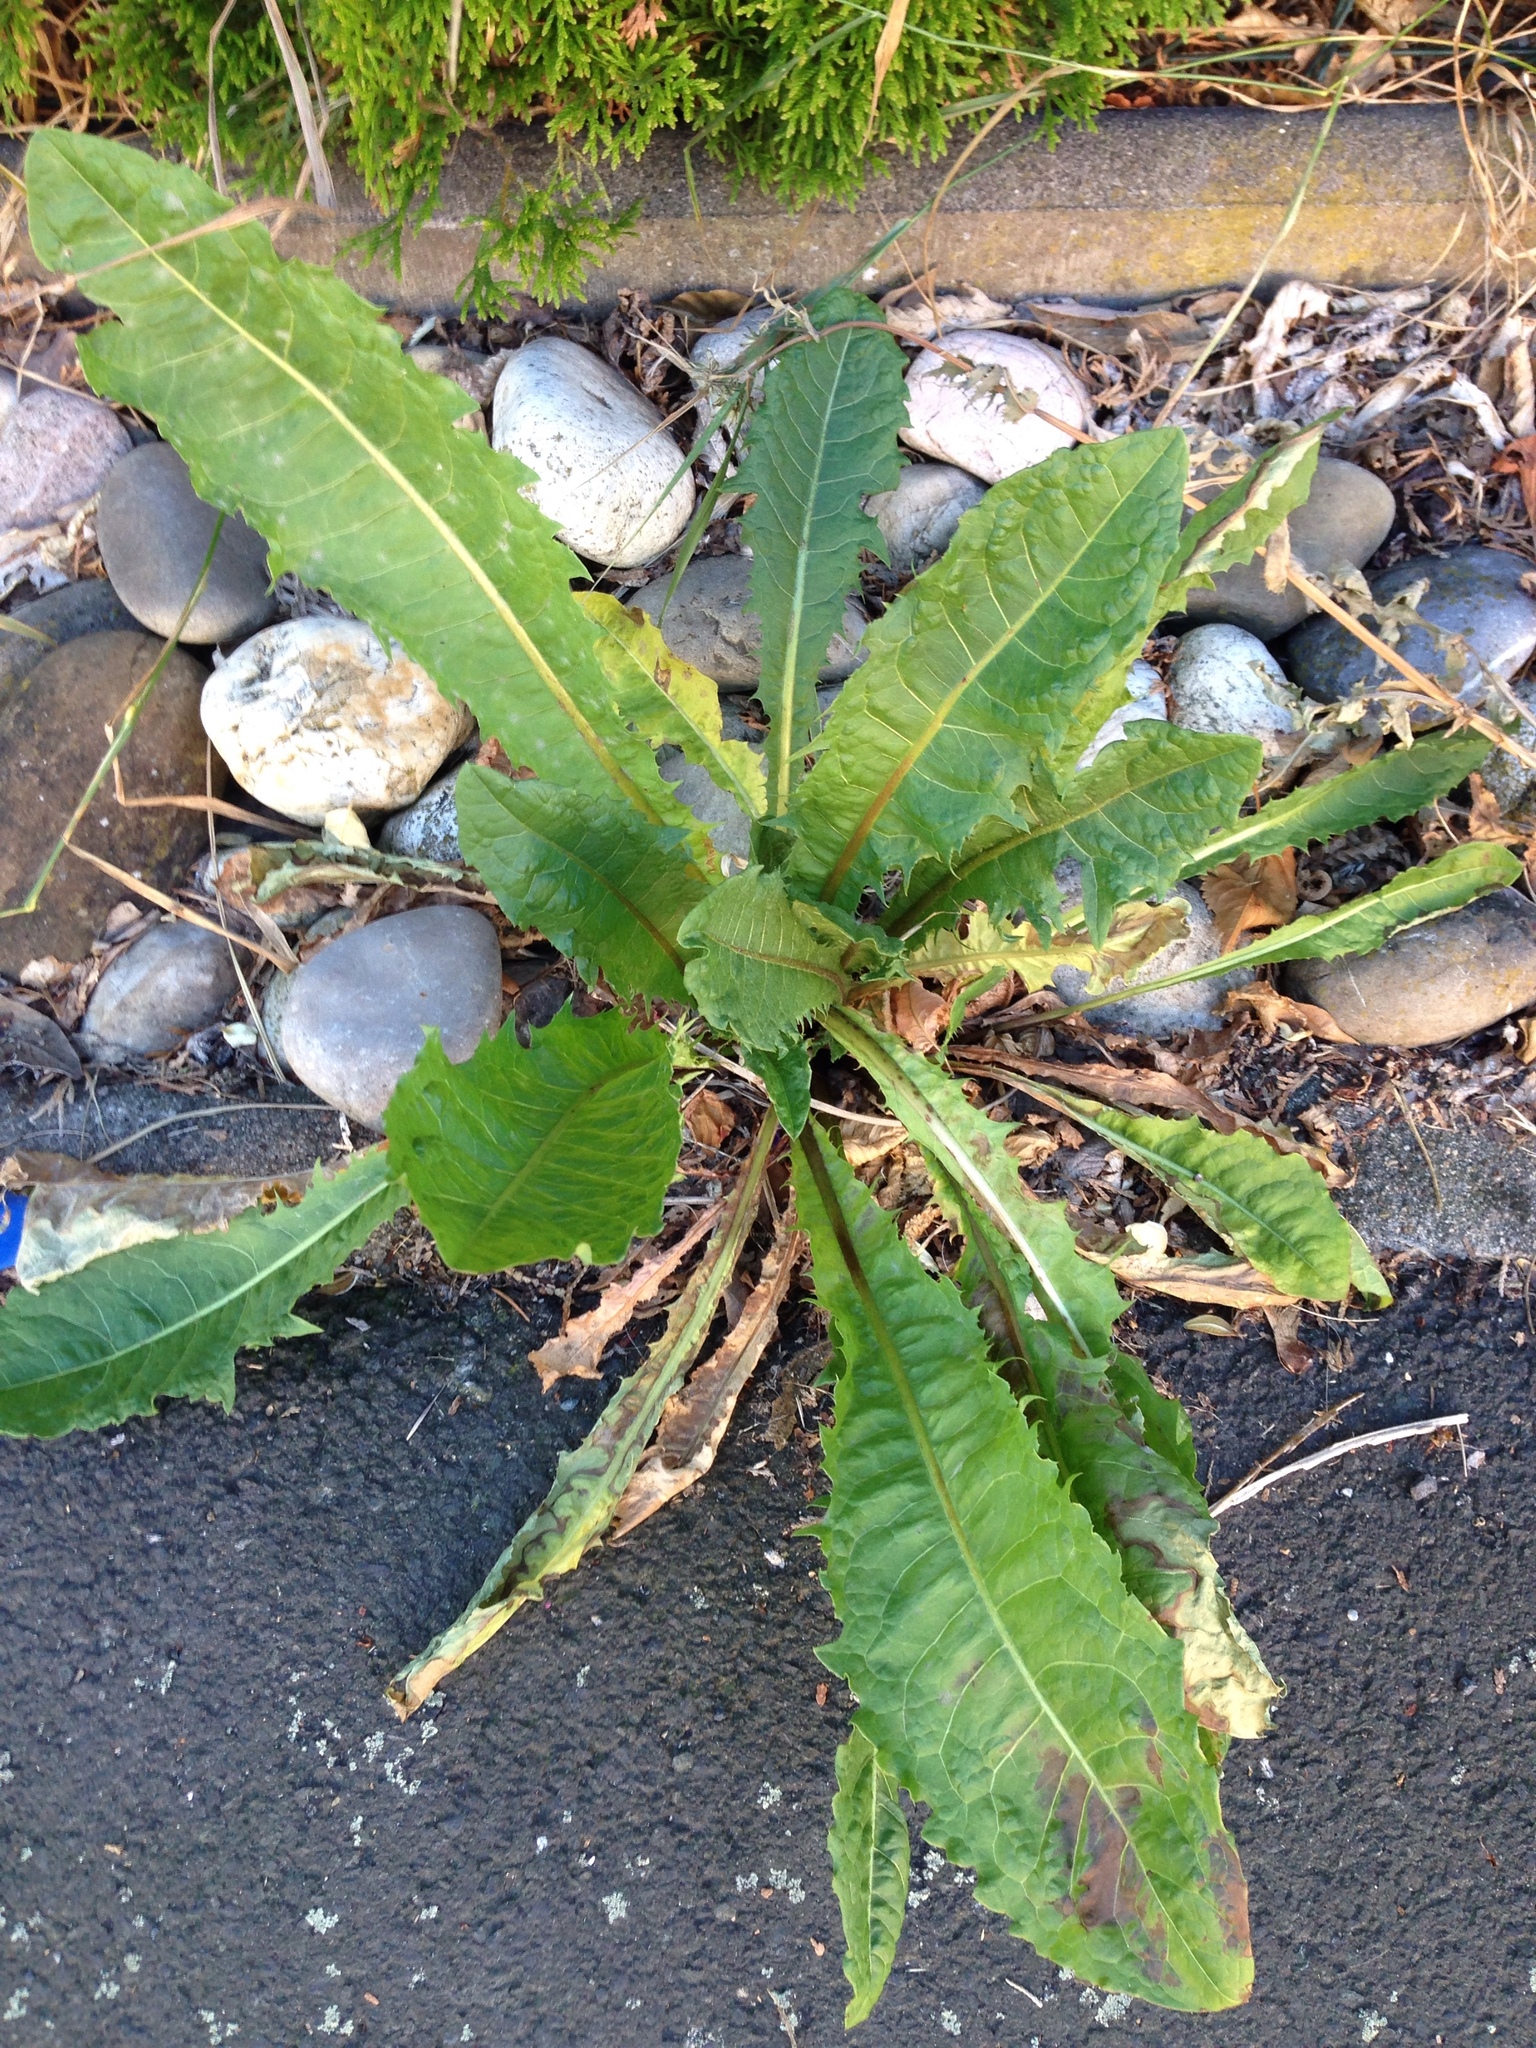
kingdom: Plantae
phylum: Tracheophyta
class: Magnoliopsida
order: Asterales
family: Asteraceae
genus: Taraxacum
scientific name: Taraxacum officinale
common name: Common dandelion
